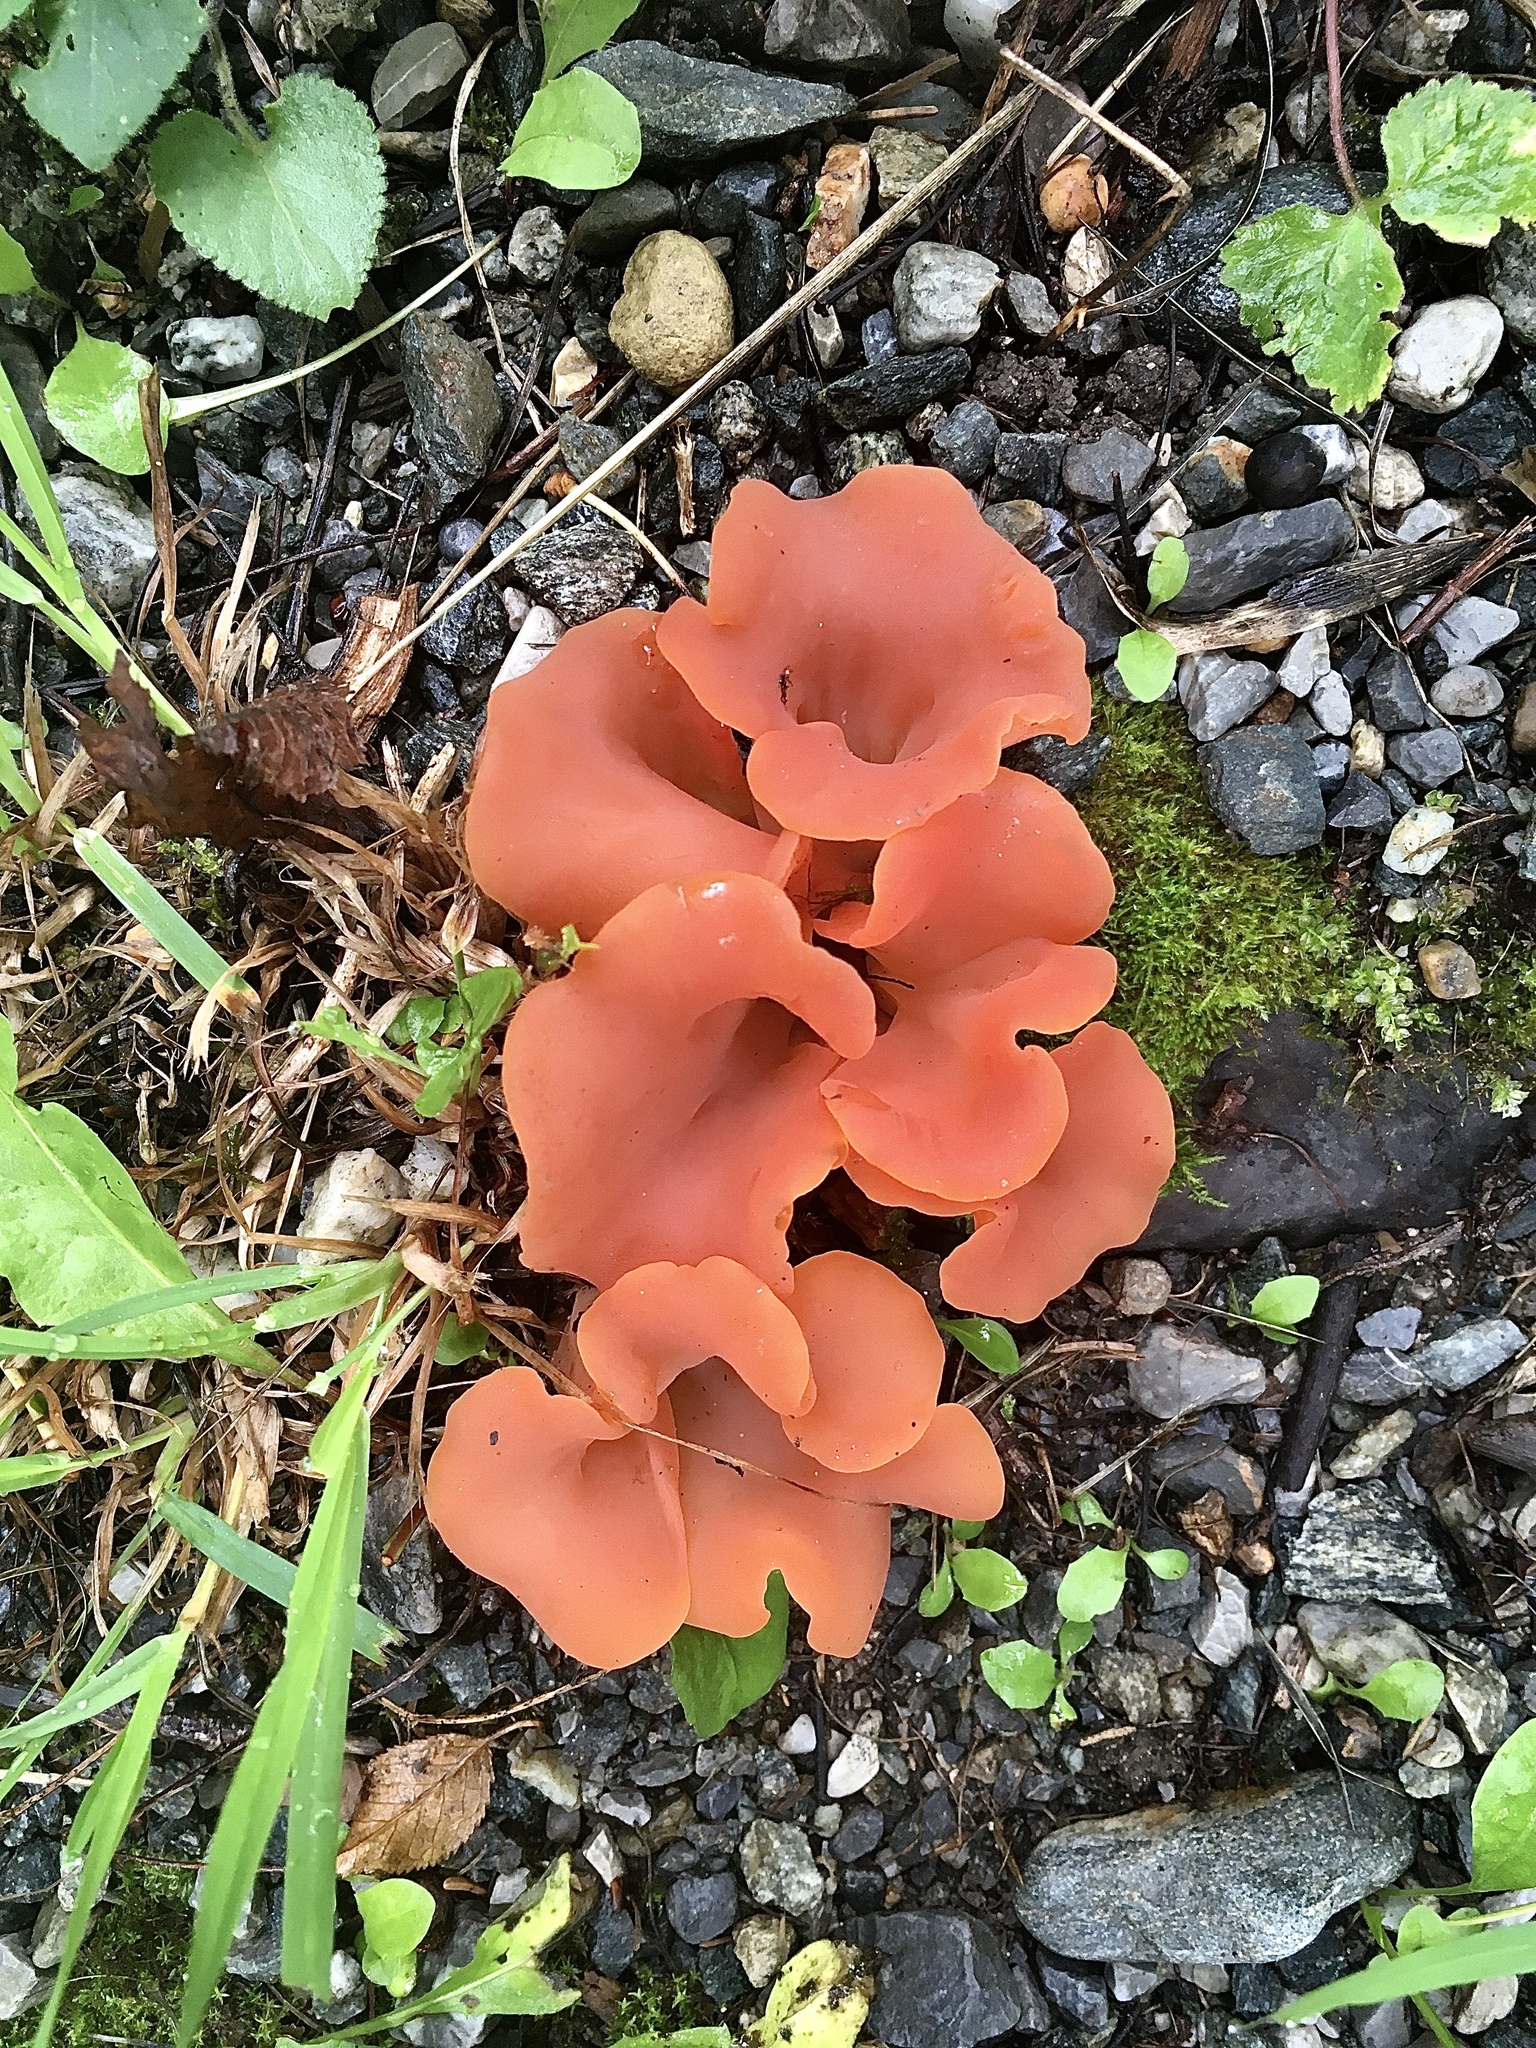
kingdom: Fungi
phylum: Basidiomycota
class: Agaricomycetes
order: Auriculariales
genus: Guepinia
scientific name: Guepinia helvelloides
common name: Salmon salad
